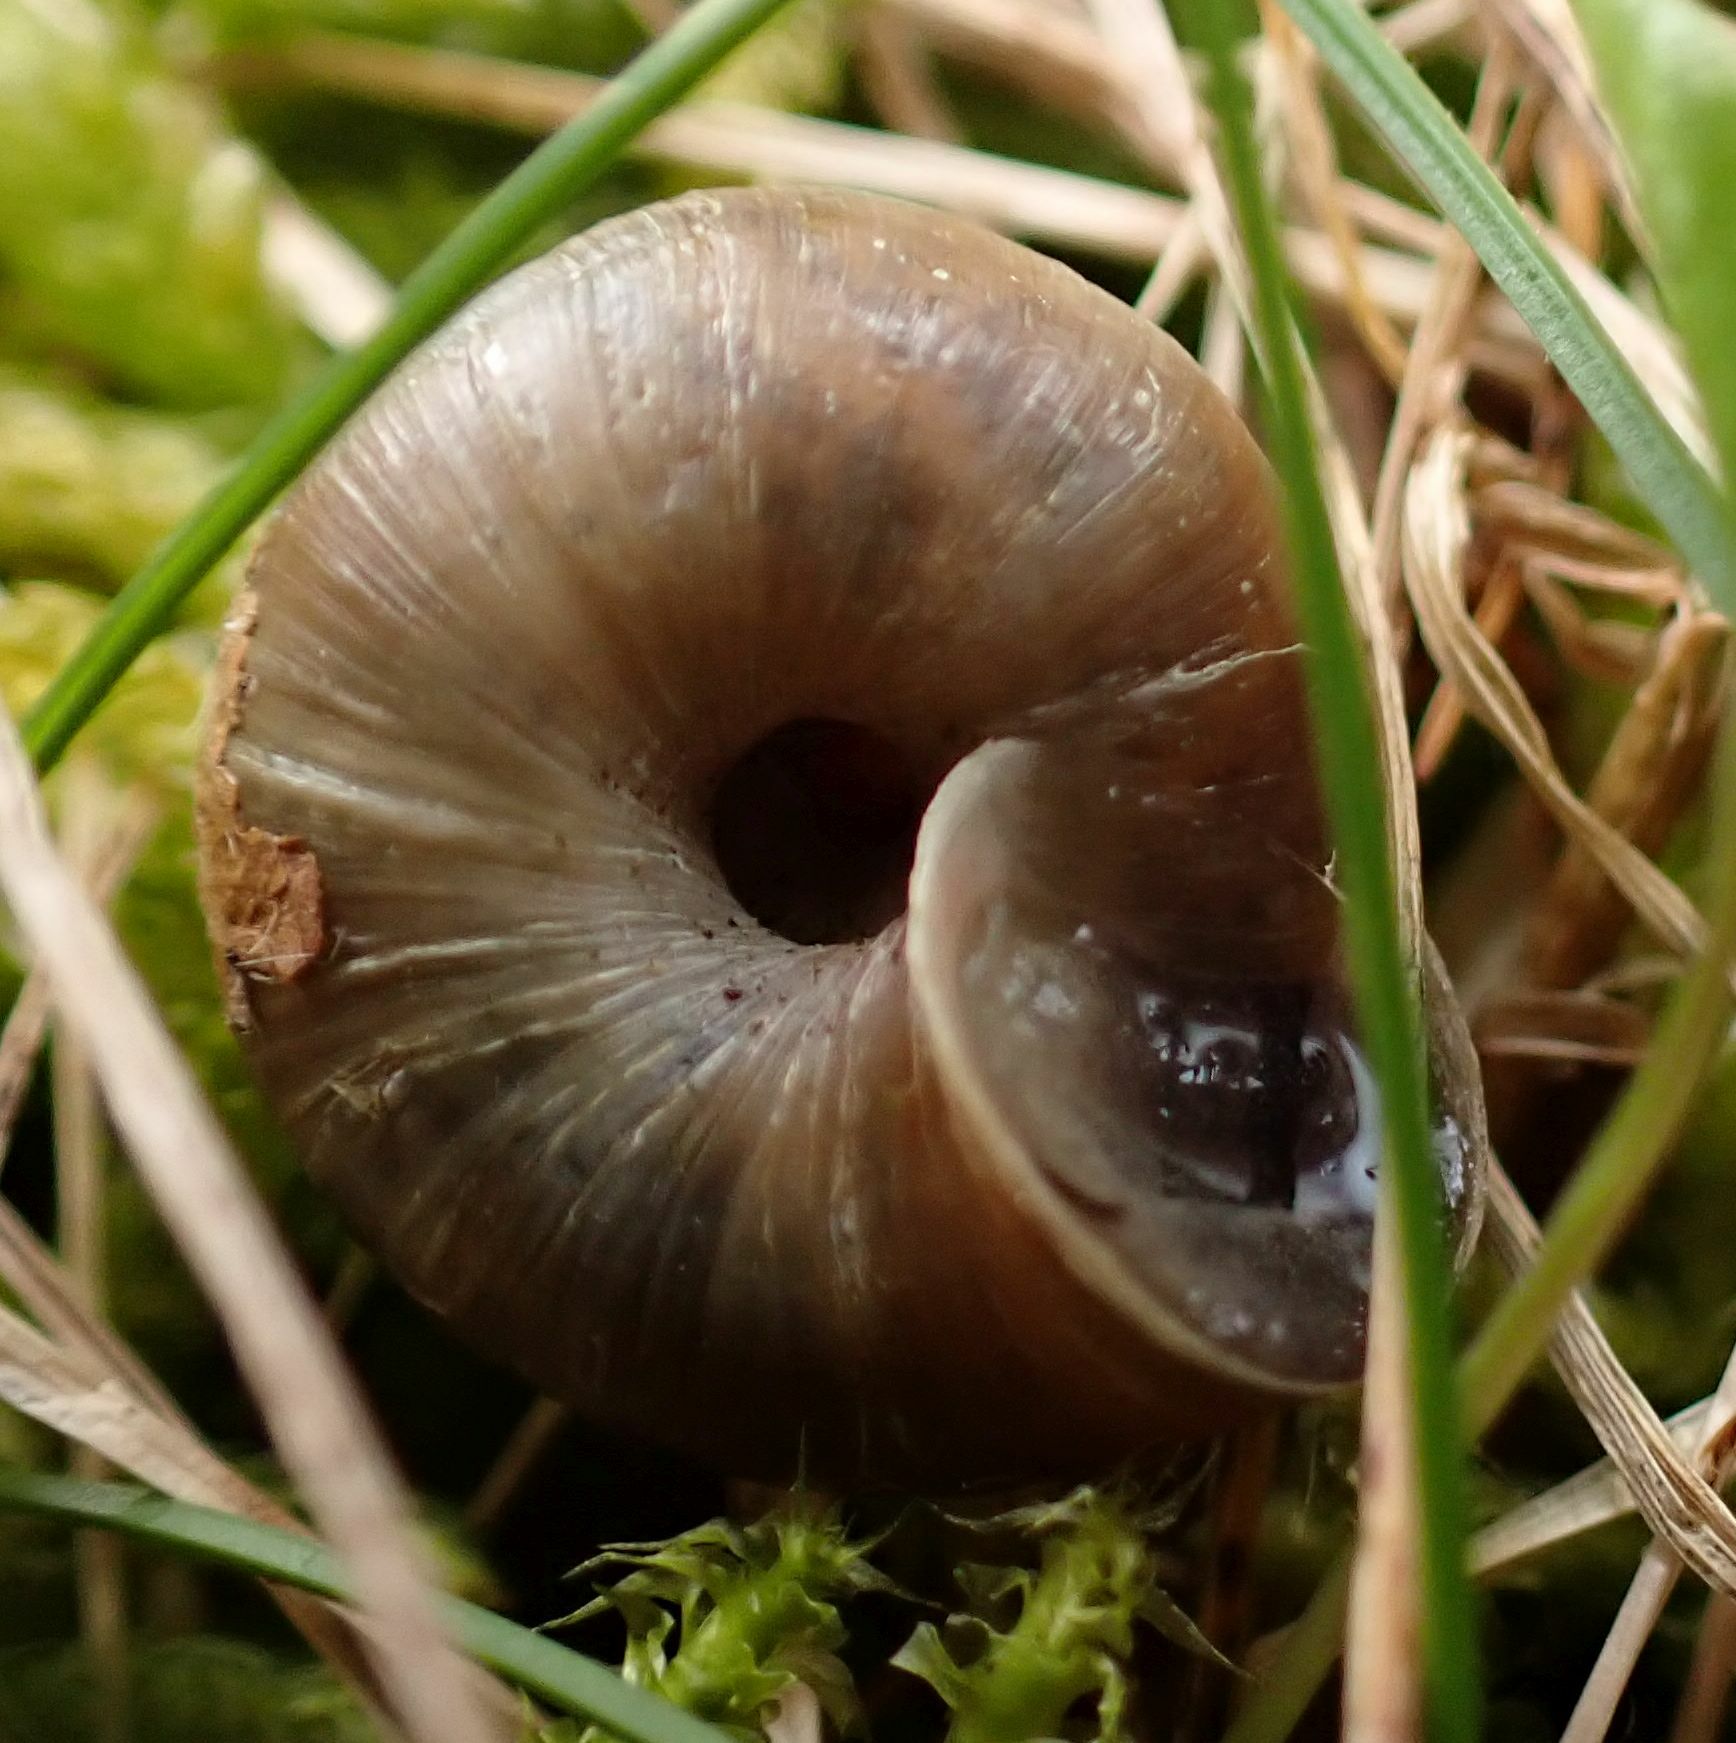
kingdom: Animalia
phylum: Mollusca
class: Gastropoda
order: Stylommatophora
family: Hygromiidae
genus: Trochulus
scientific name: Trochulus striolatus
